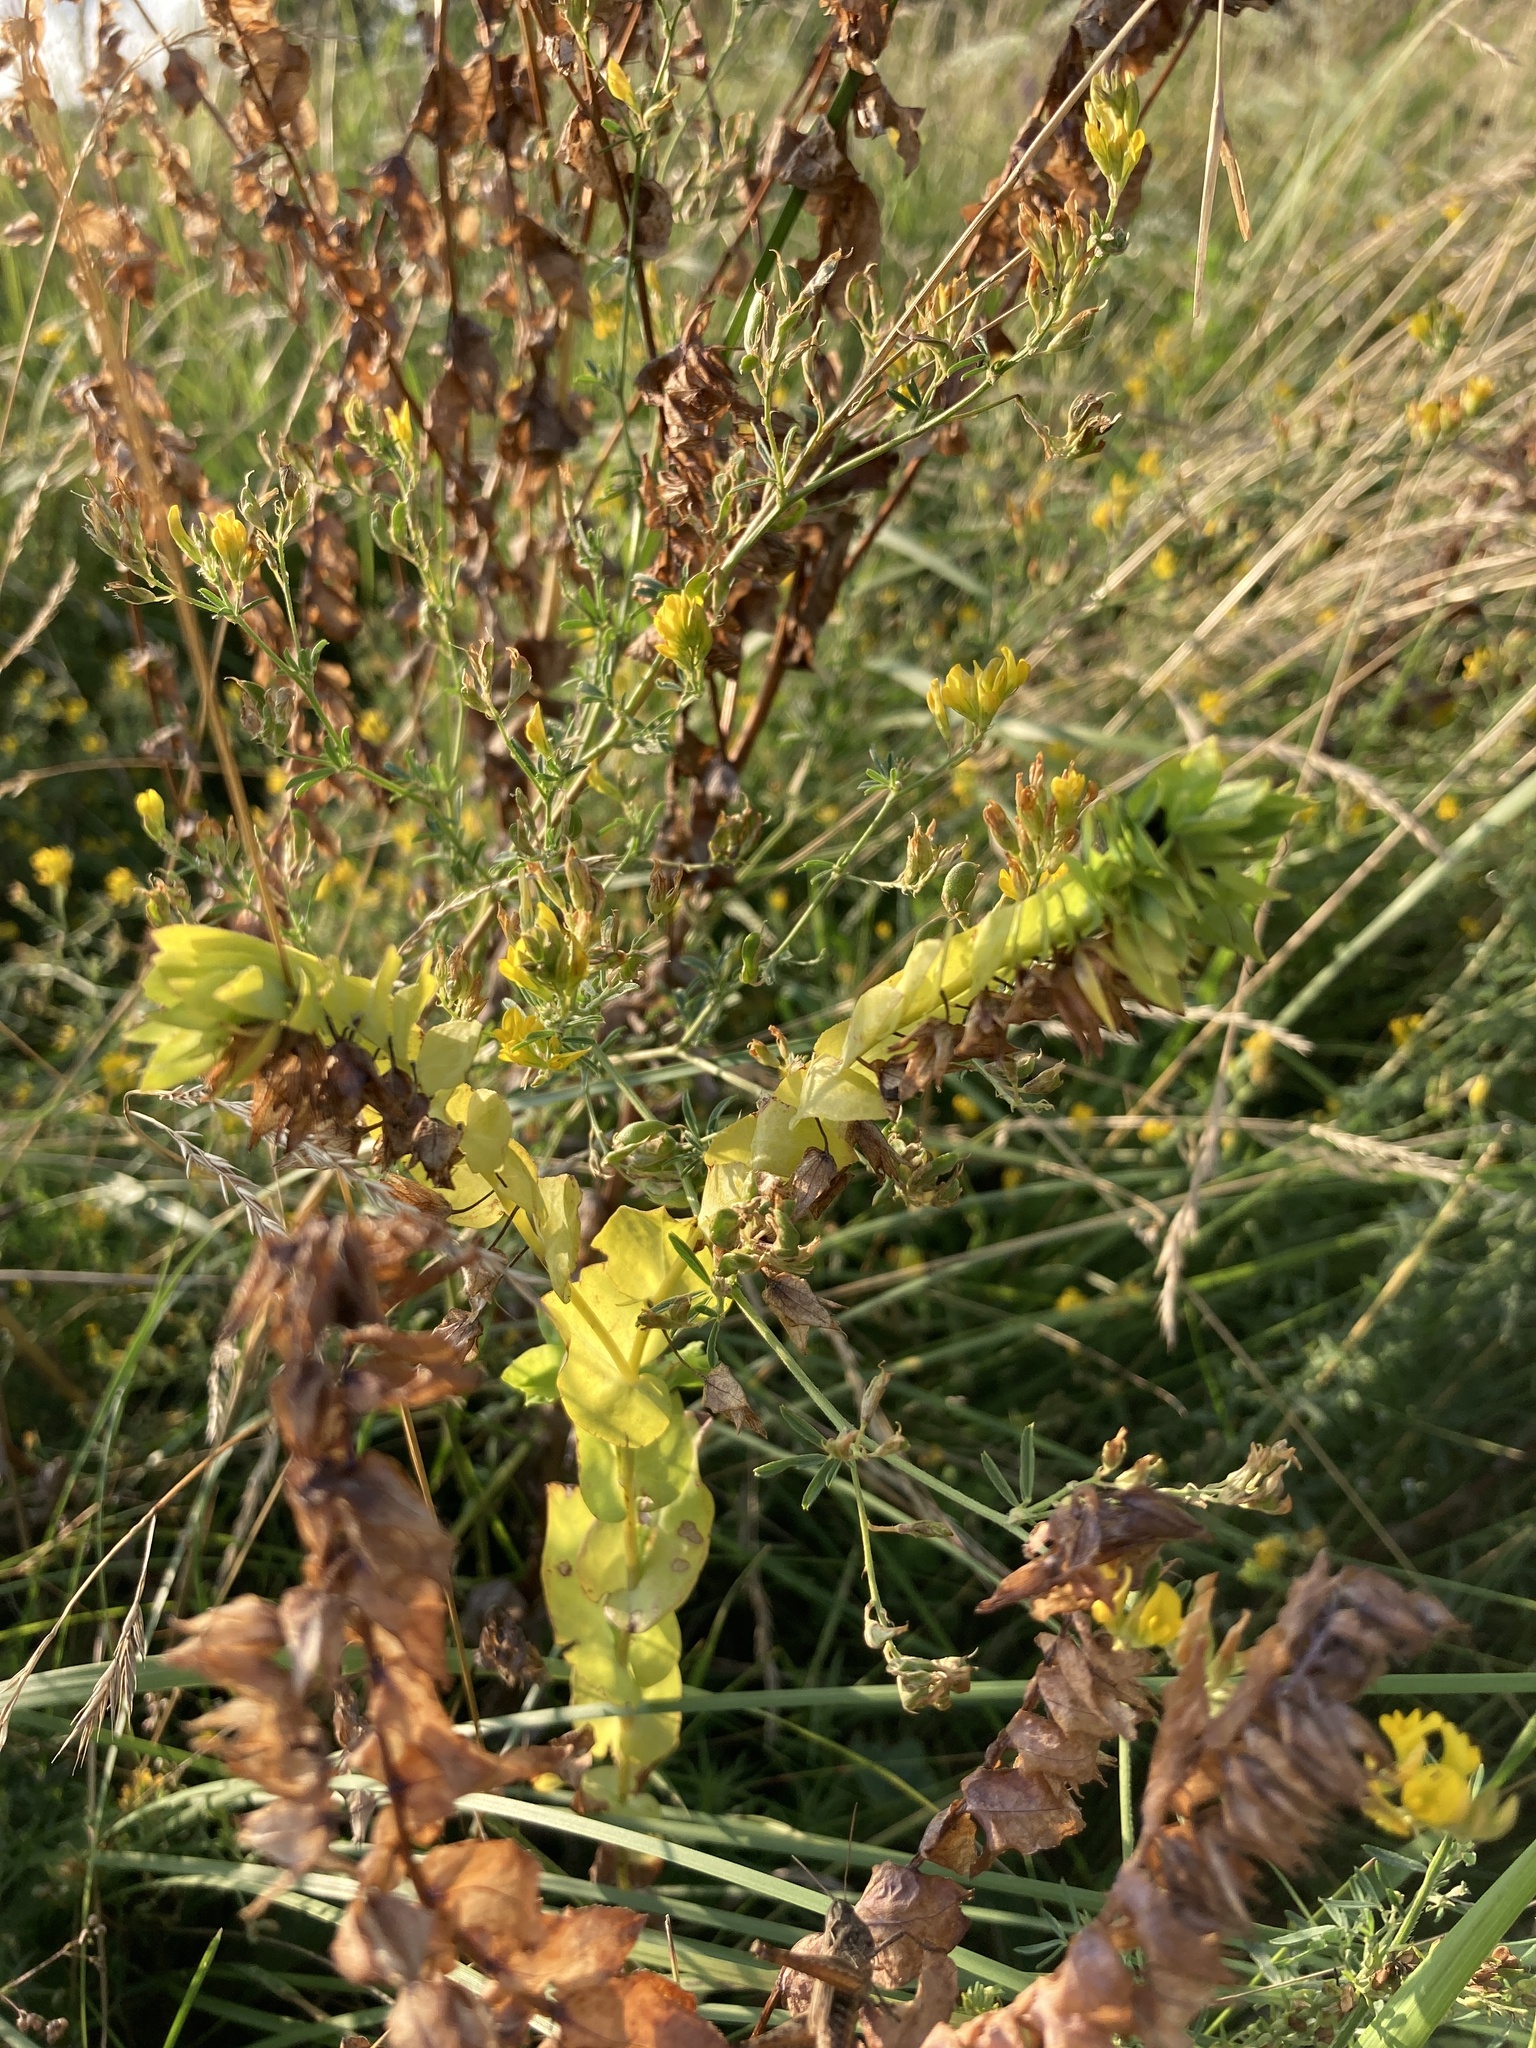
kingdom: Plantae
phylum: Tracheophyta
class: Magnoliopsida
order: Boraginales
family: Boraginaceae
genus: Cerinthe
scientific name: Cerinthe minor
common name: Lesser honeywort
